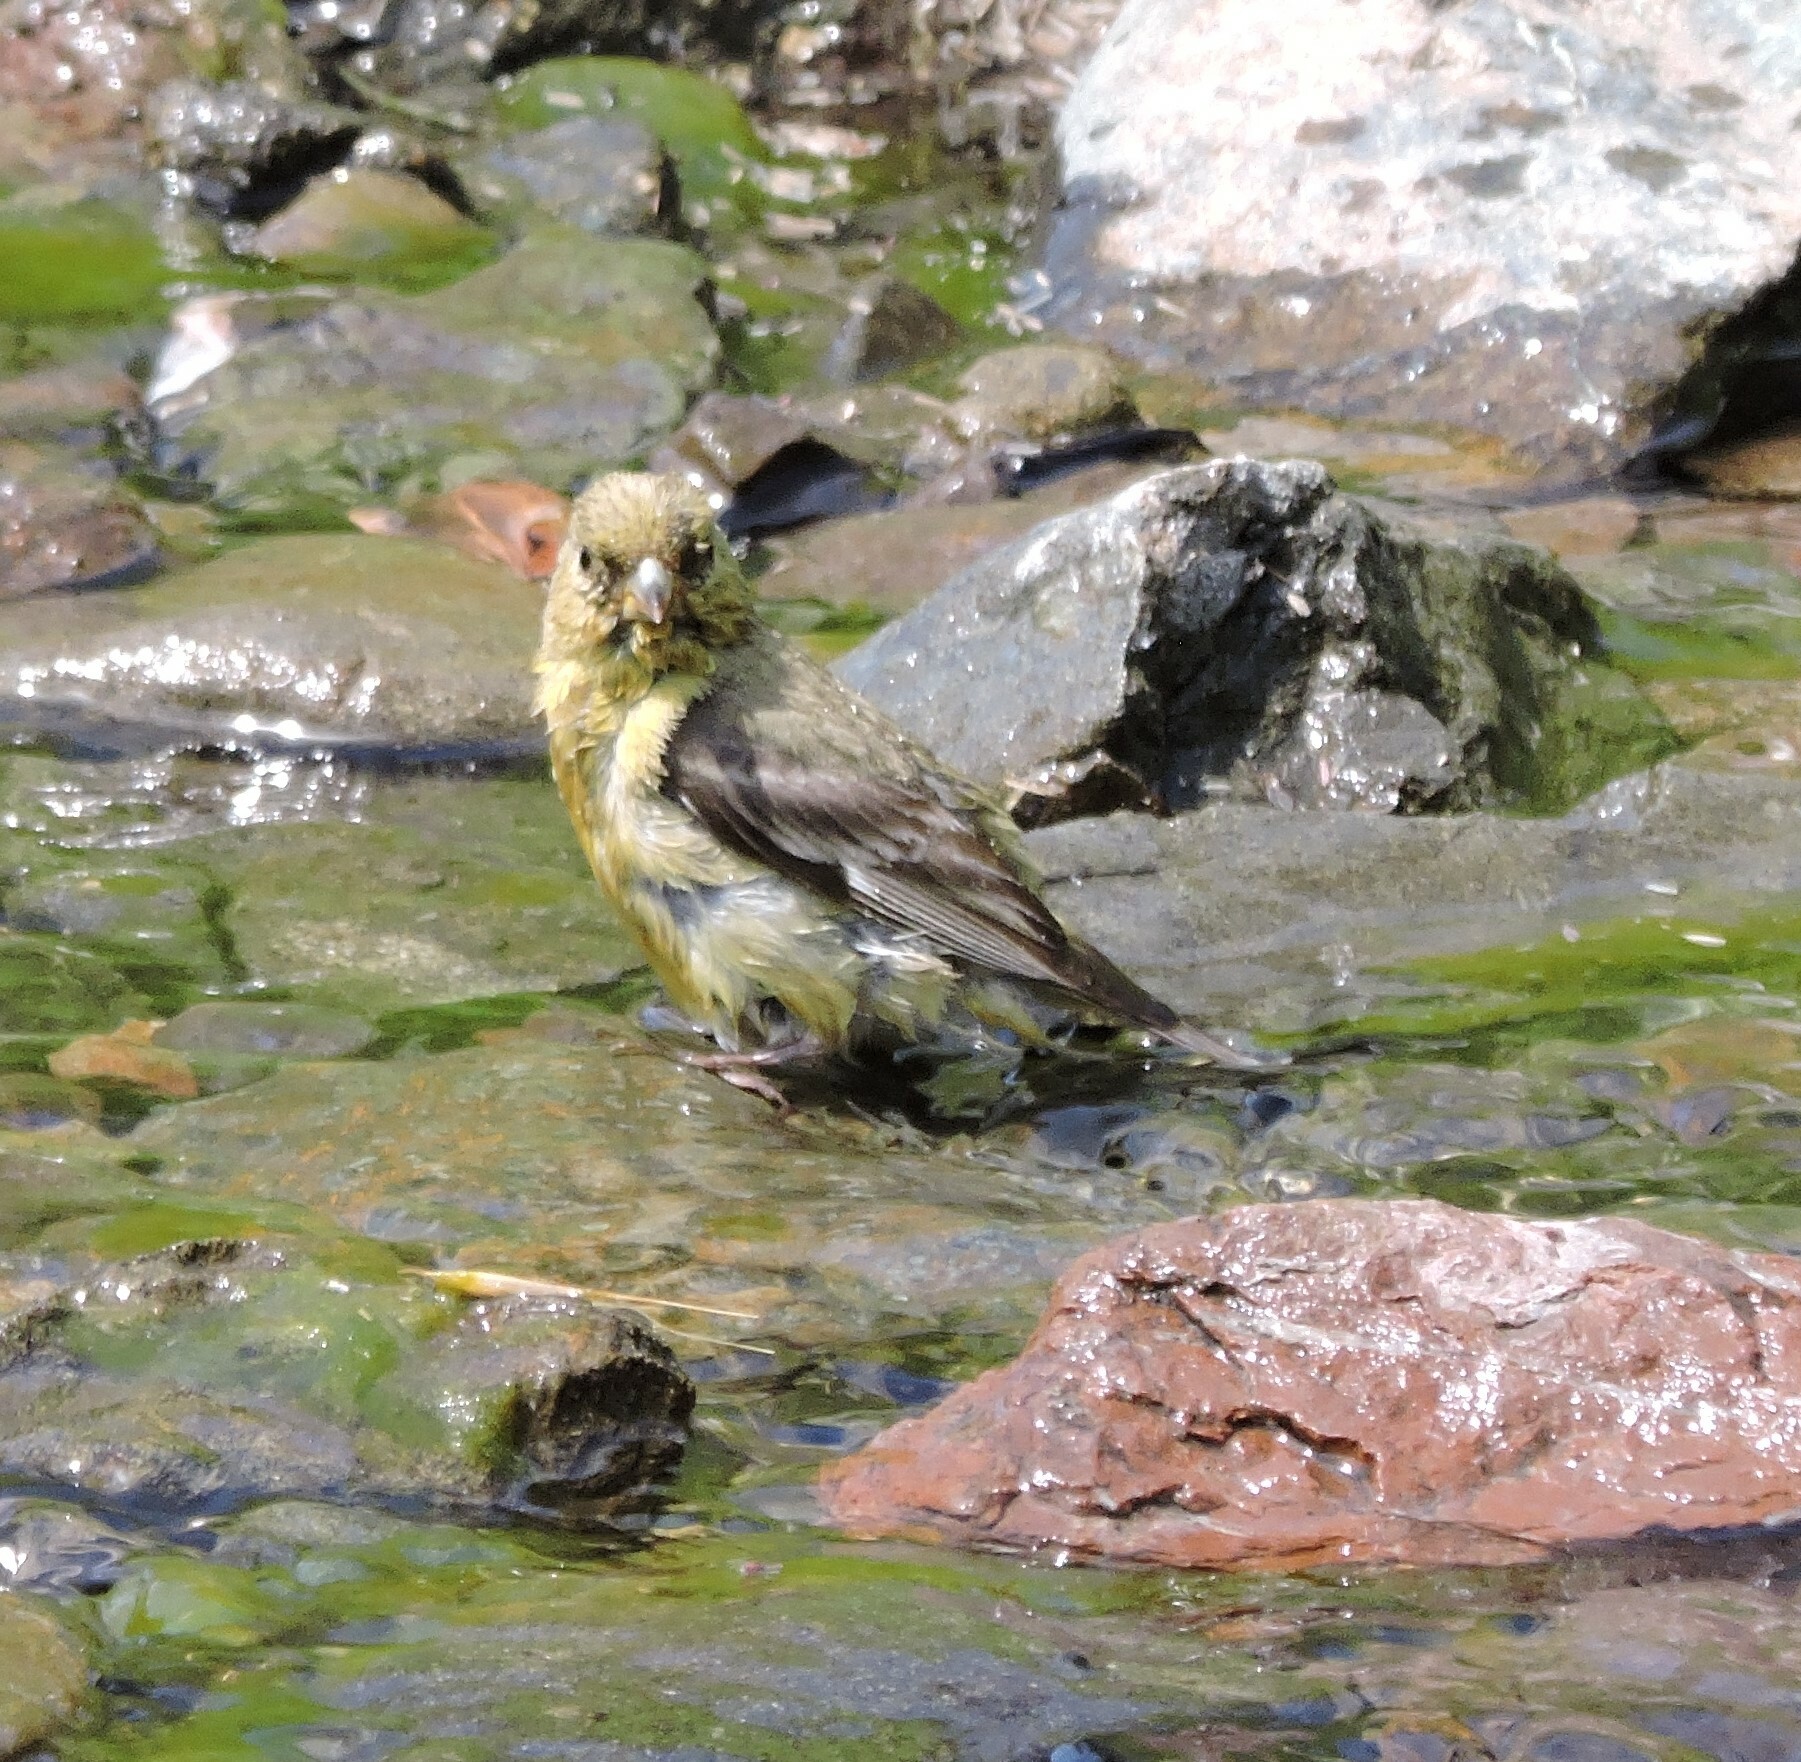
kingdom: Animalia
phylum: Chordata
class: Aves
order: Passeriformes
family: Fringillidae
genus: Spinus
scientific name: Spinus psaltria
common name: Lesser goldfinch
